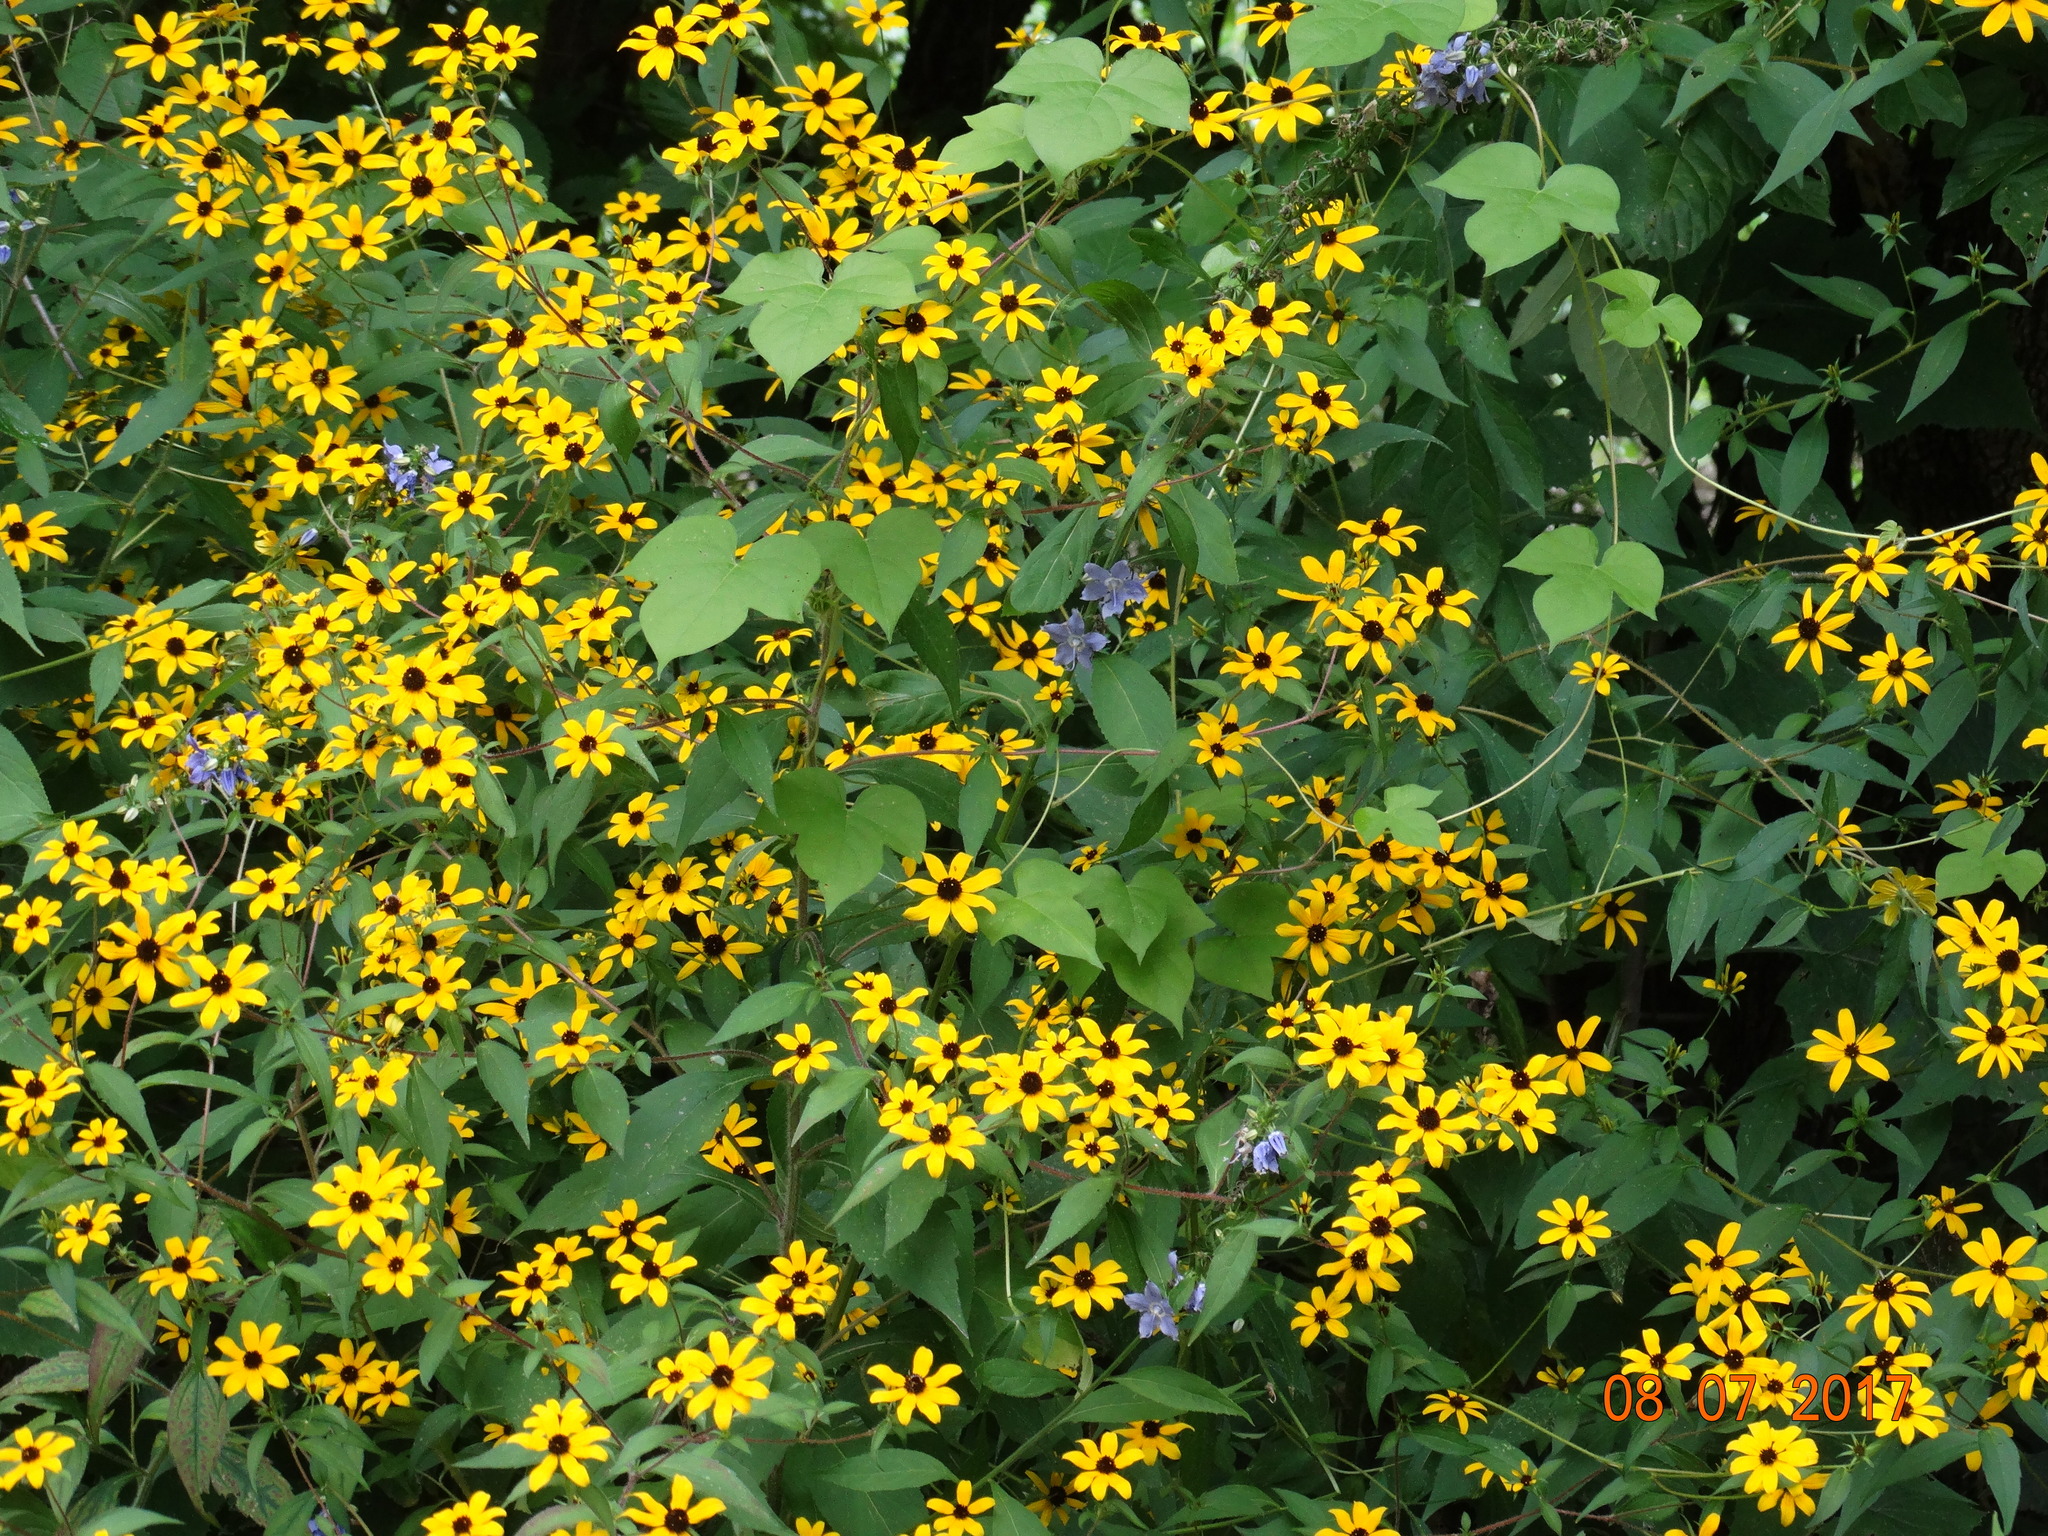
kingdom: Plantae
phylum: Tracheophyta
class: Magnoliopsida
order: Asterales
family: Asteraceae
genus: Rudbeckia
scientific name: Rudbeckia triloba
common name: Thin-leaved coneflower
